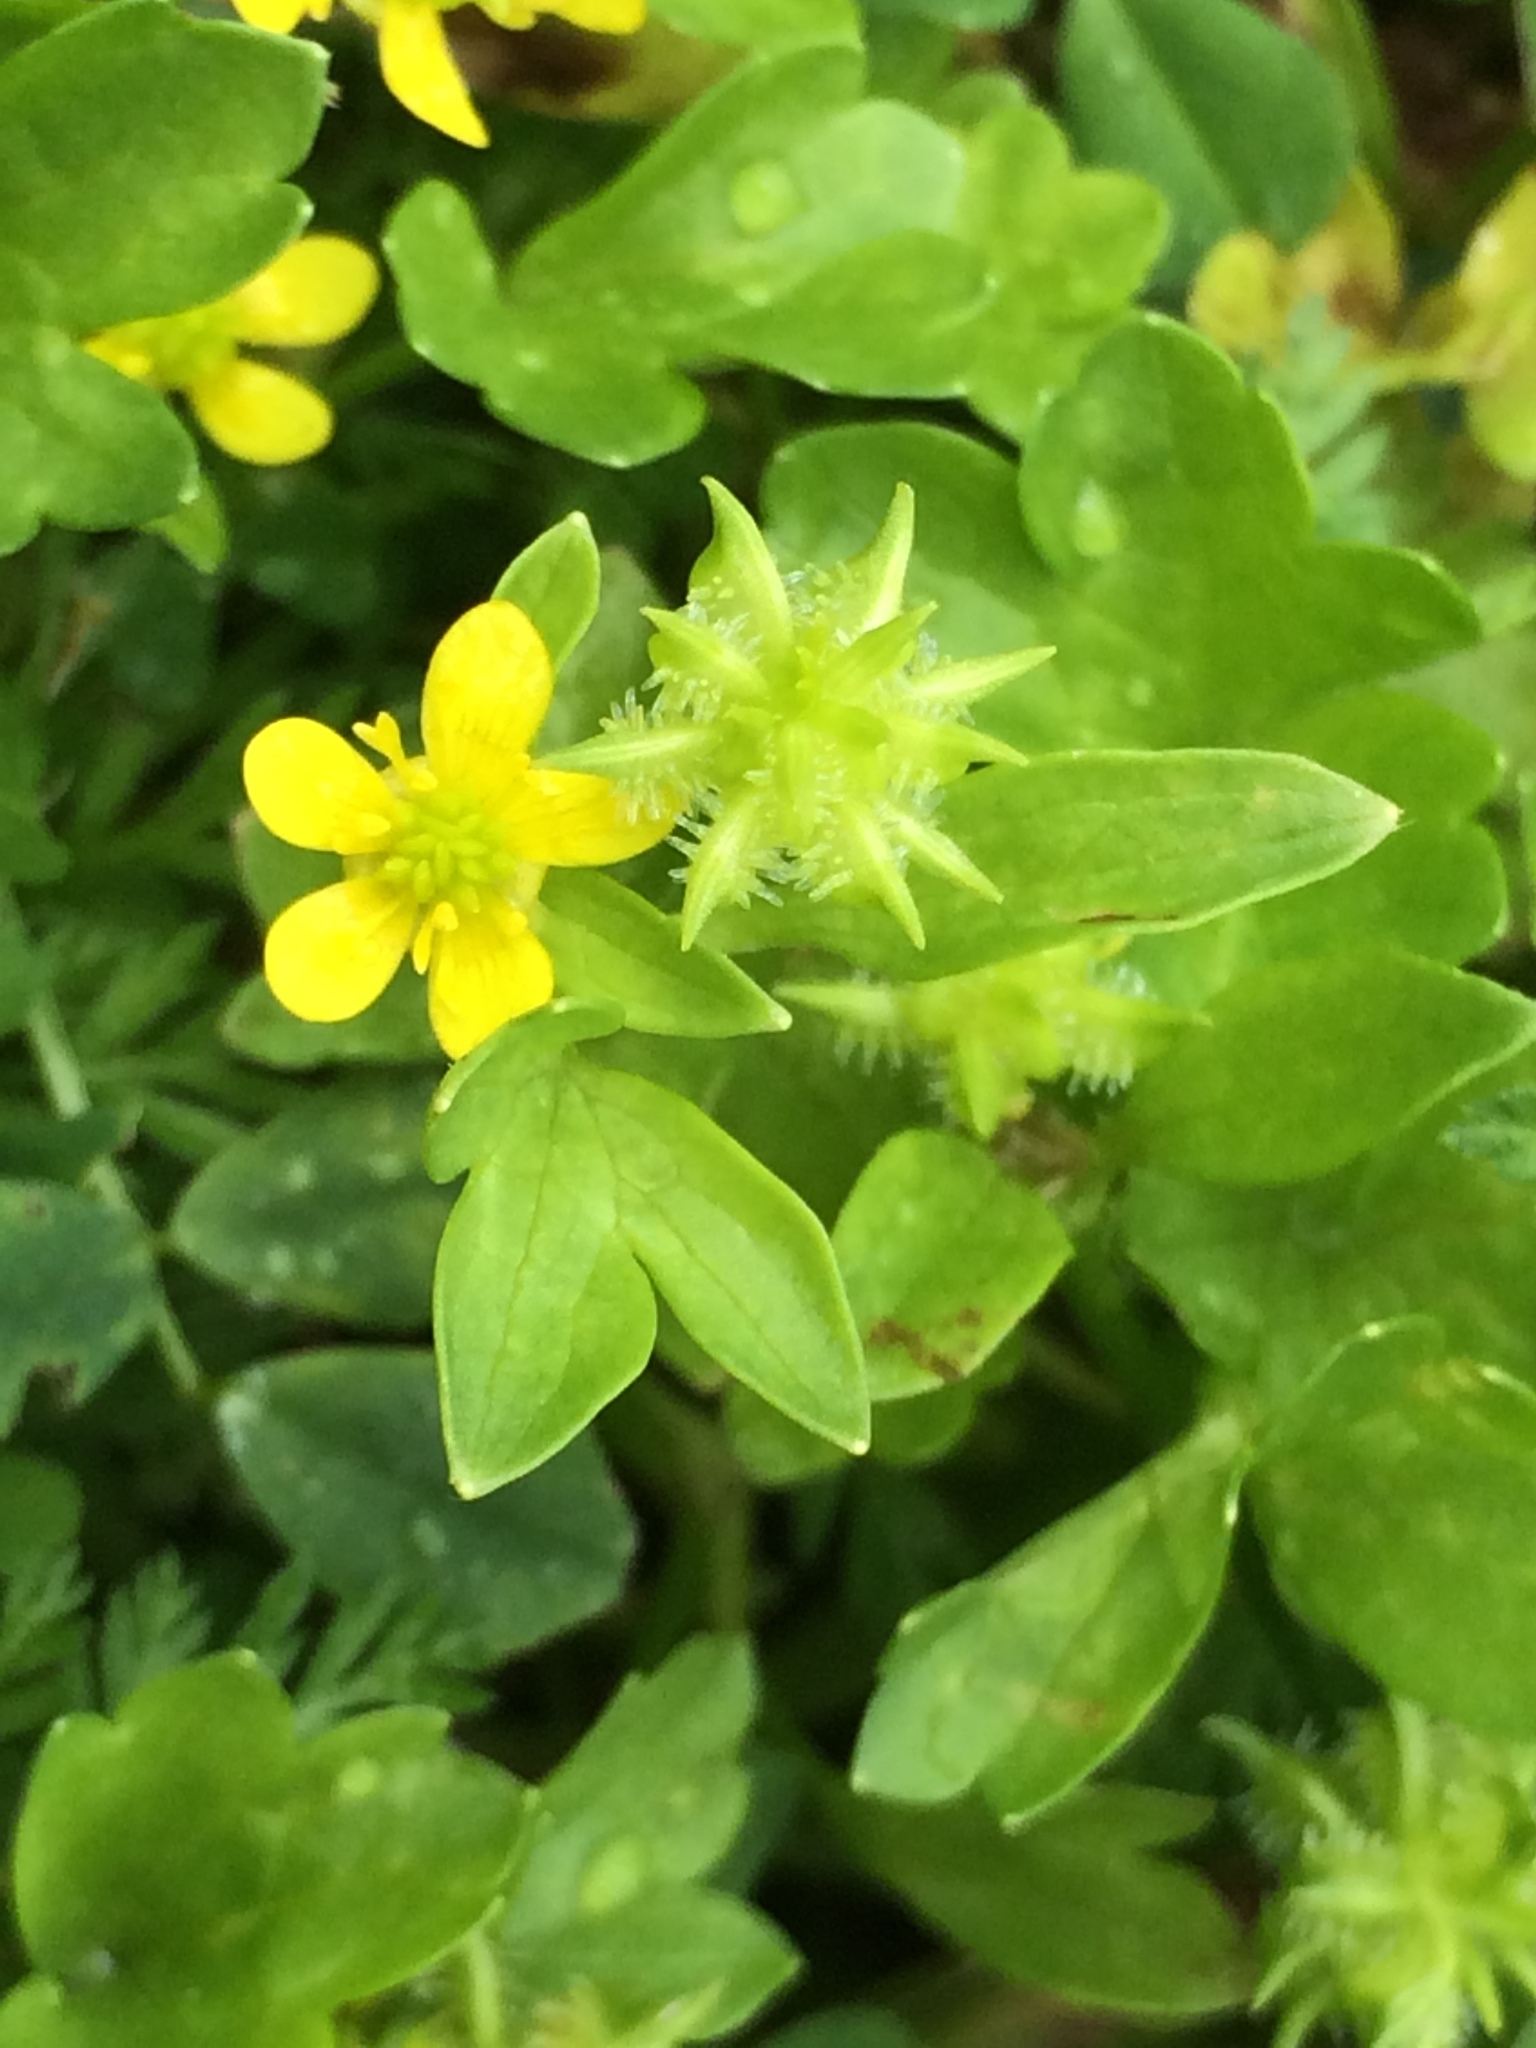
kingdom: Plantae
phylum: Tracheophyta
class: Magnoliopsida
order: Ranunculales
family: Ranunculaceae
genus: Ranunculus
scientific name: Ranunculus muricatus
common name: Rough-fruited buttercup
